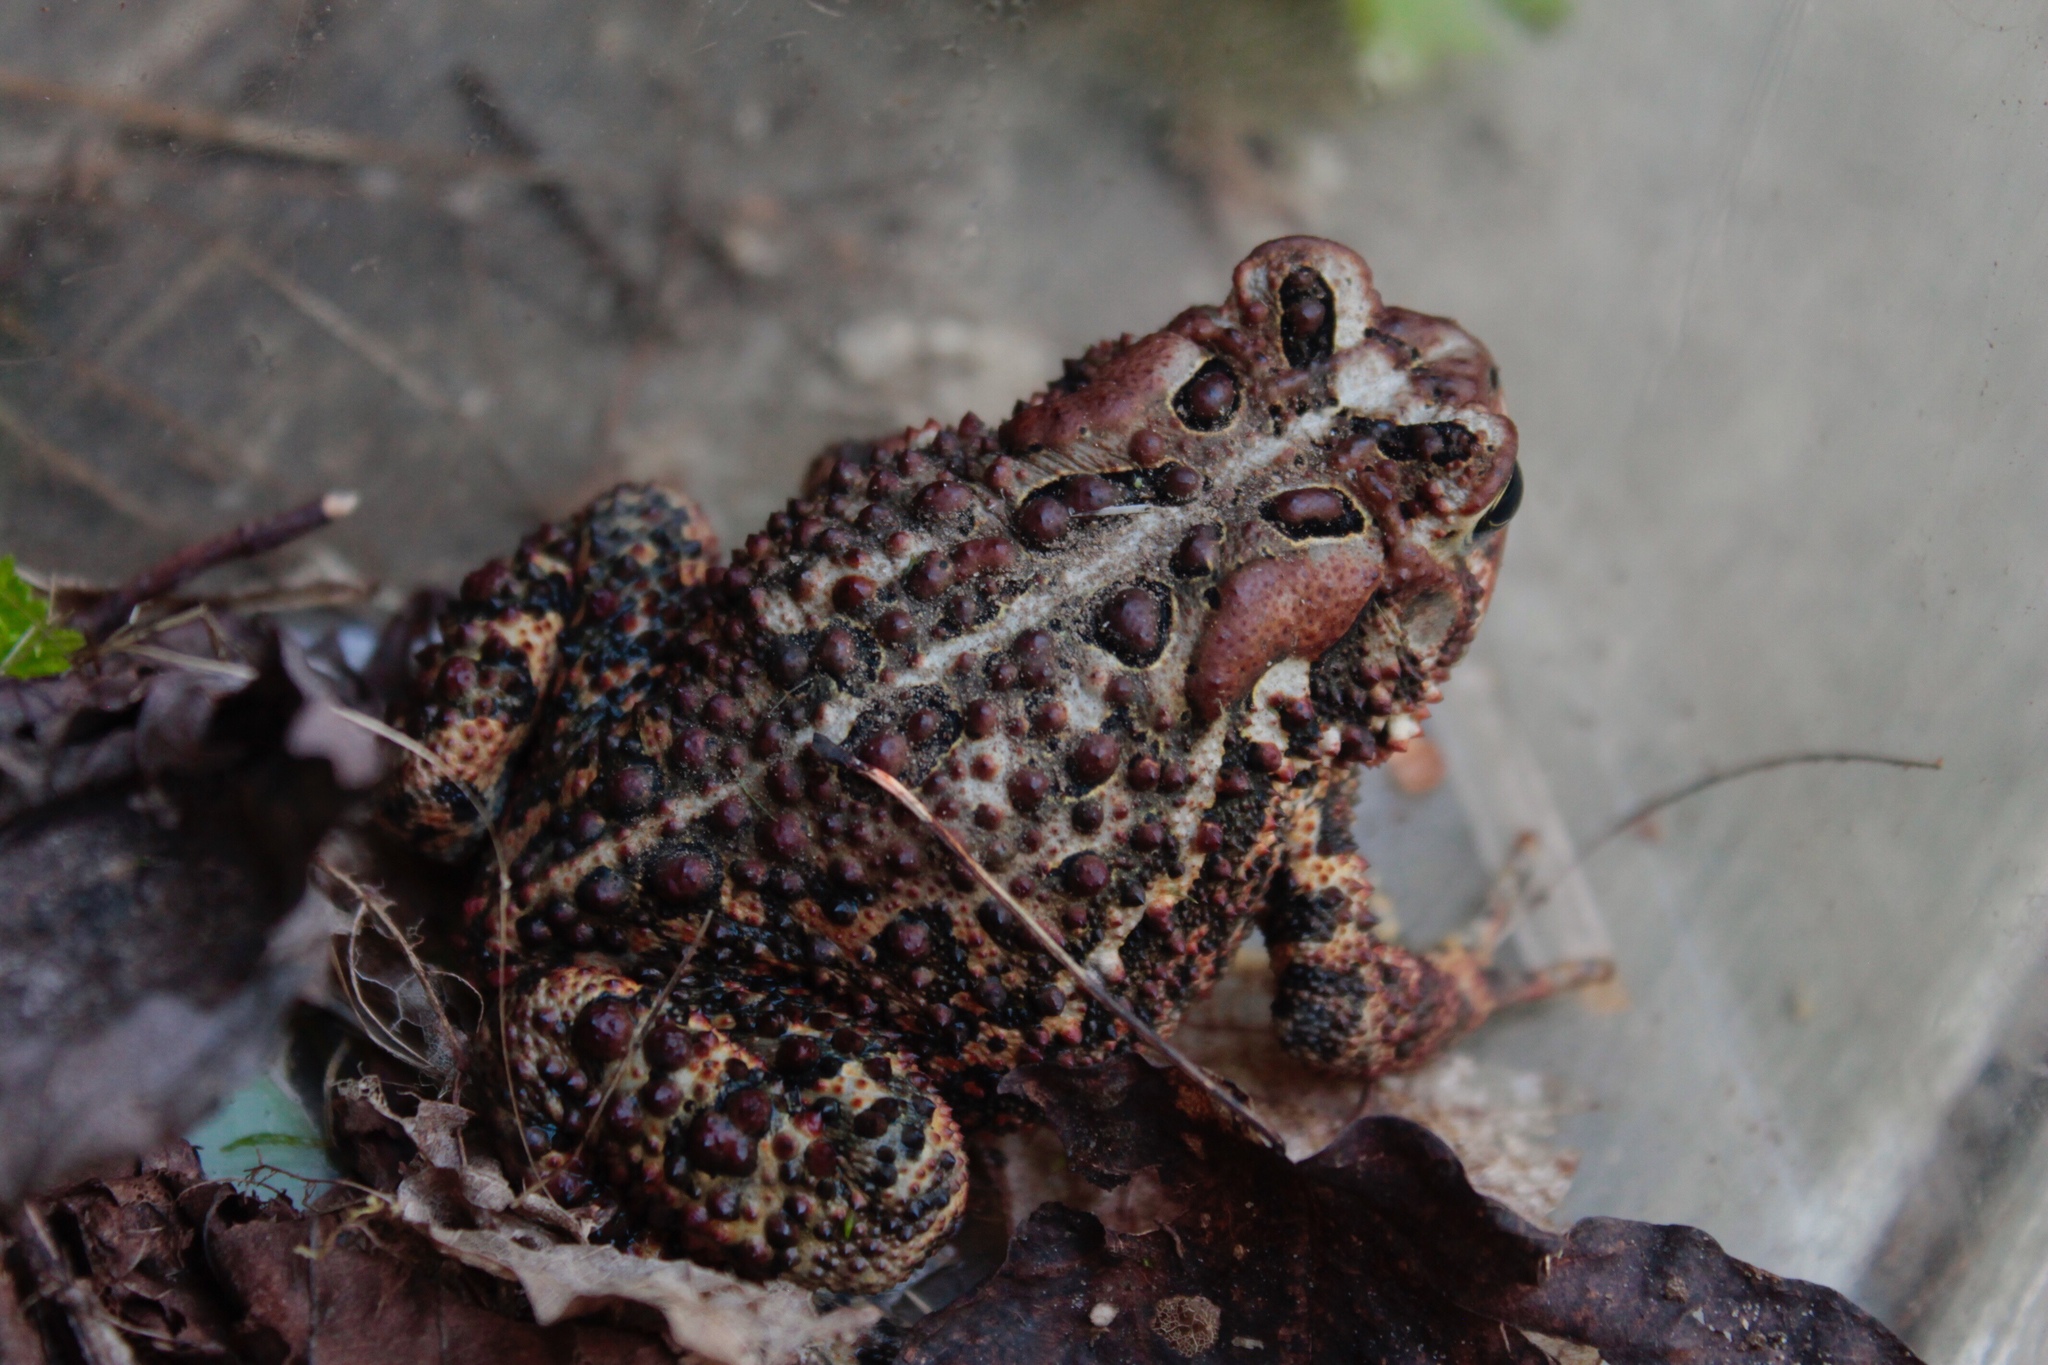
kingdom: Animalia
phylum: Chordata
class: Amphibia
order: Anura
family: Bufonidae
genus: Anaxyrus
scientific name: Anaxyrus americanus
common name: American toad
